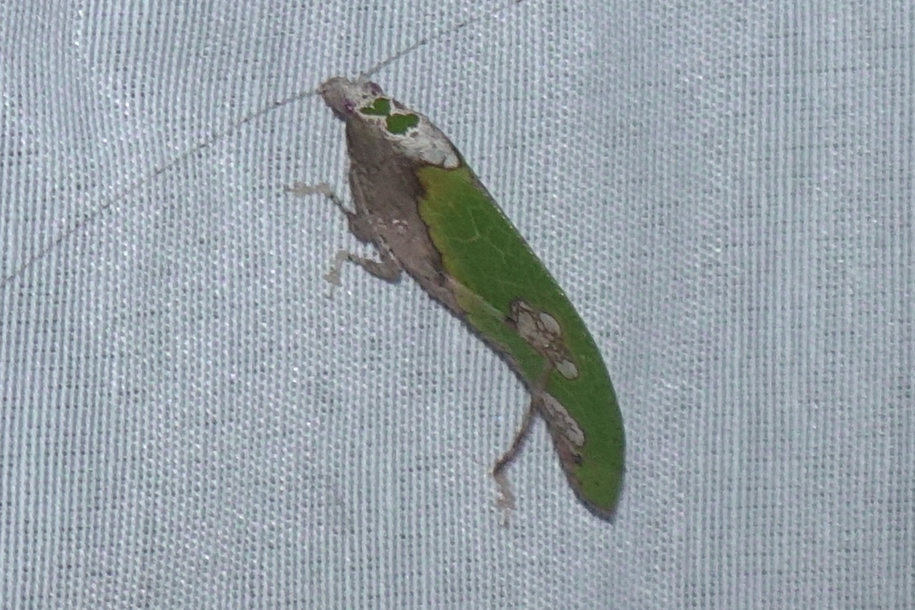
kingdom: Animalia
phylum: Arthropoda
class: Insecta
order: Orthoptera
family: Tettigoniidae
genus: Pycnopalpa
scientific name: Pycnopalpa bicordata
